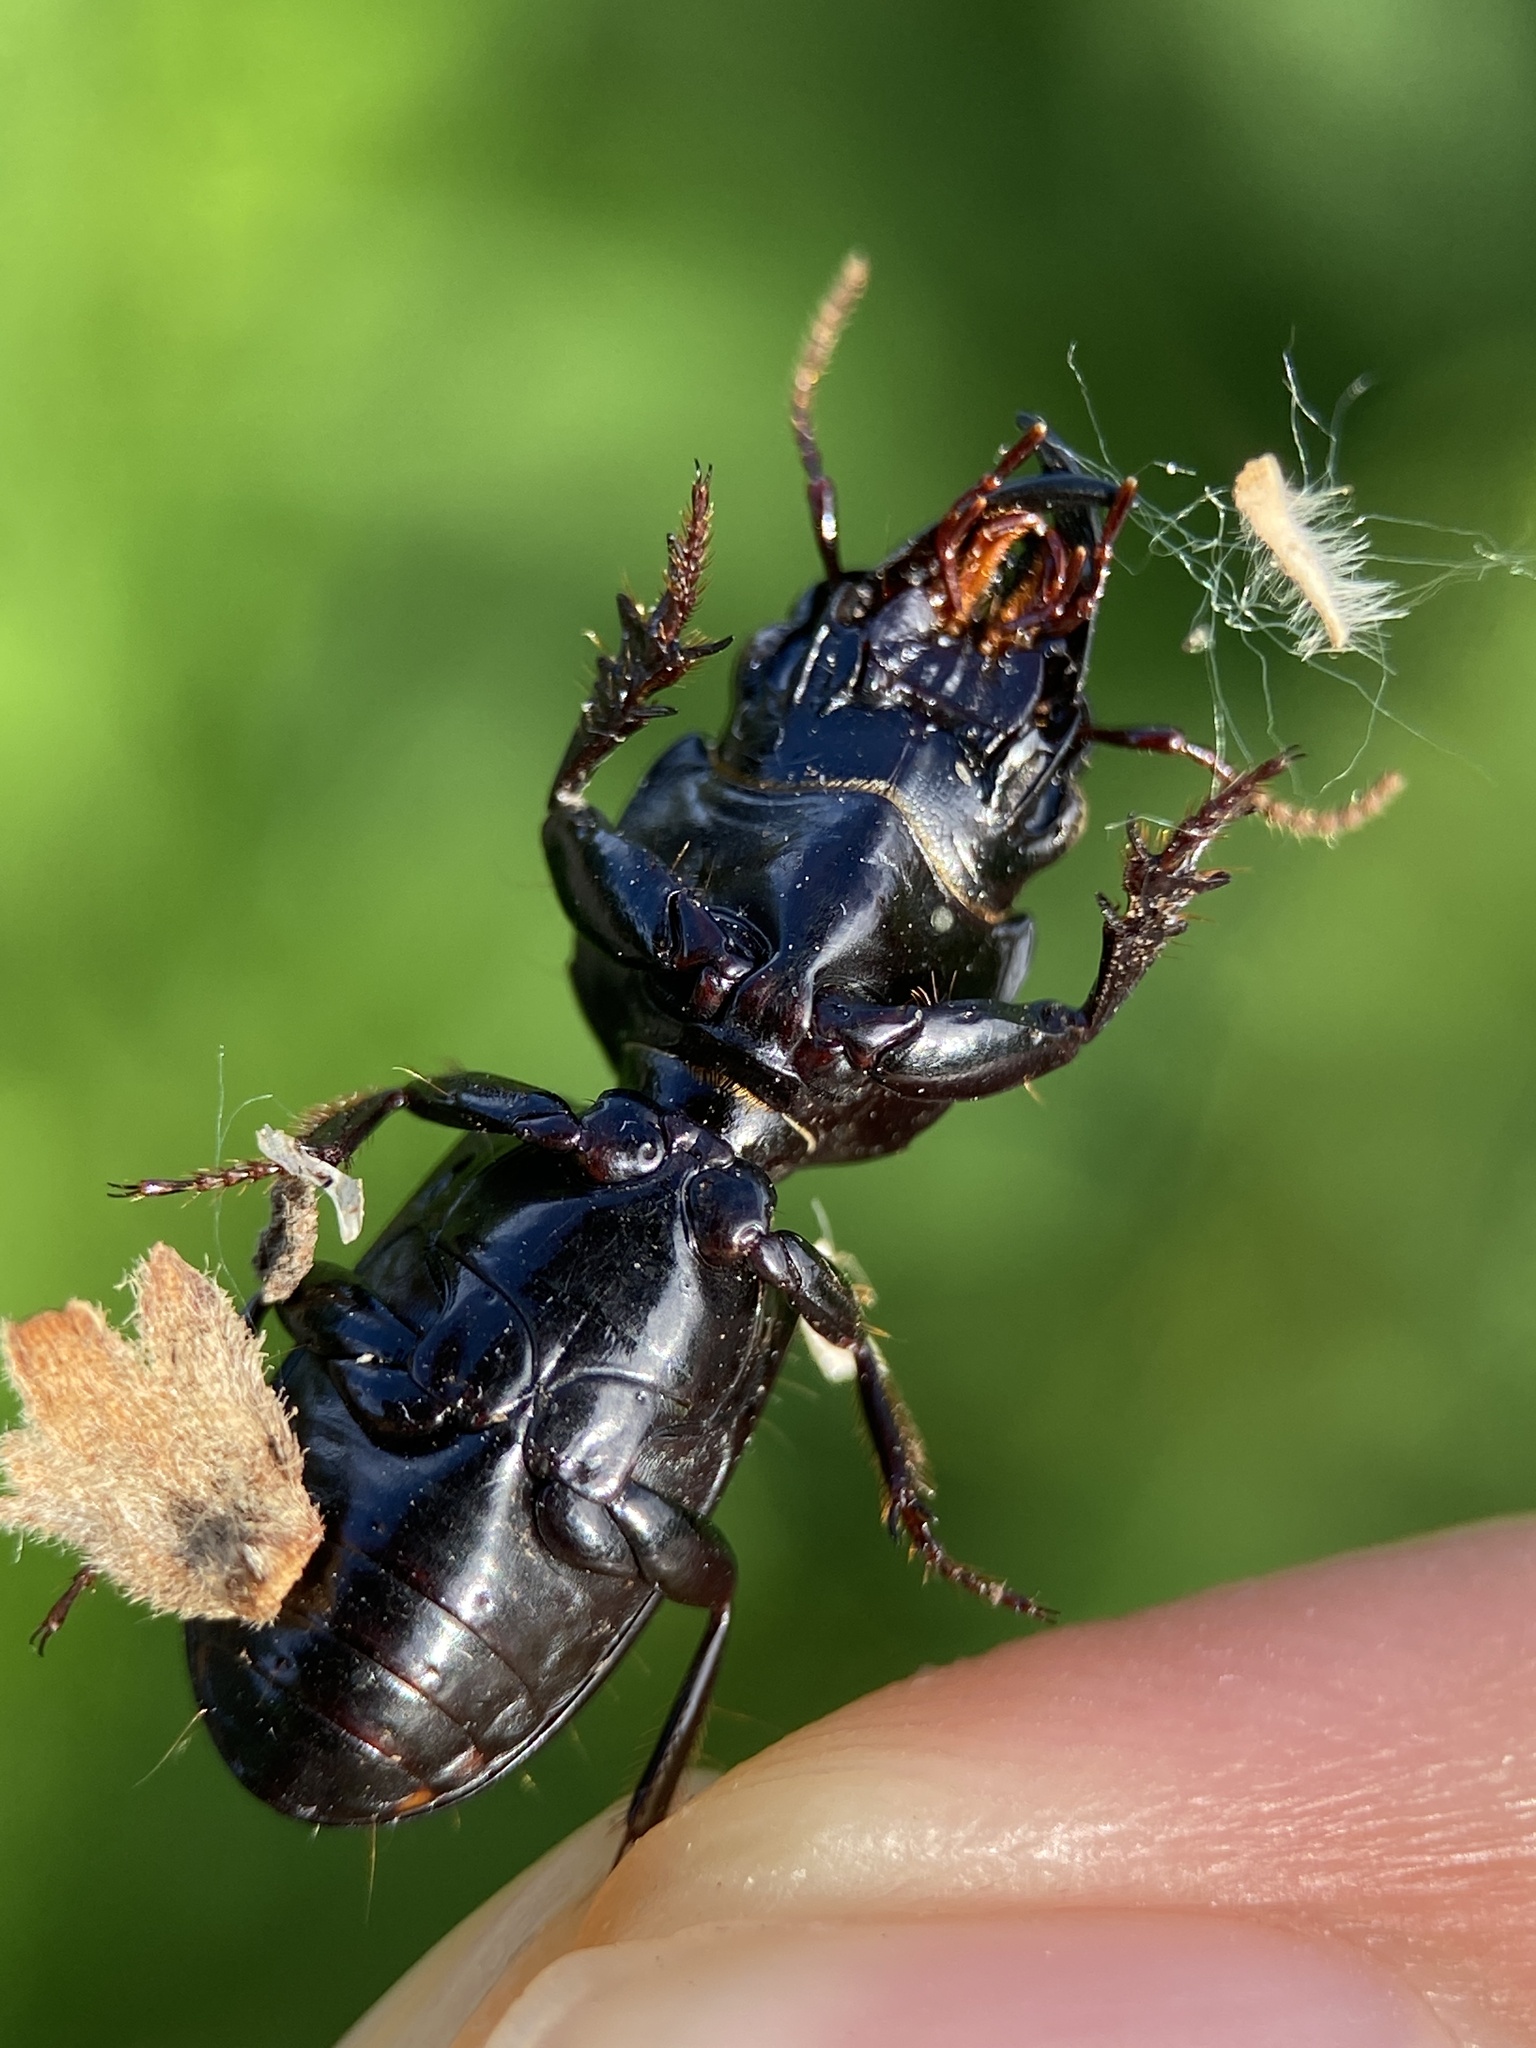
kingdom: Animalia
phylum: Arthropoda
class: Insecta
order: Coleoptera
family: Carabidae
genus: Scarites
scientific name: Scarites subterraneus
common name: Big-headed ground beetle
